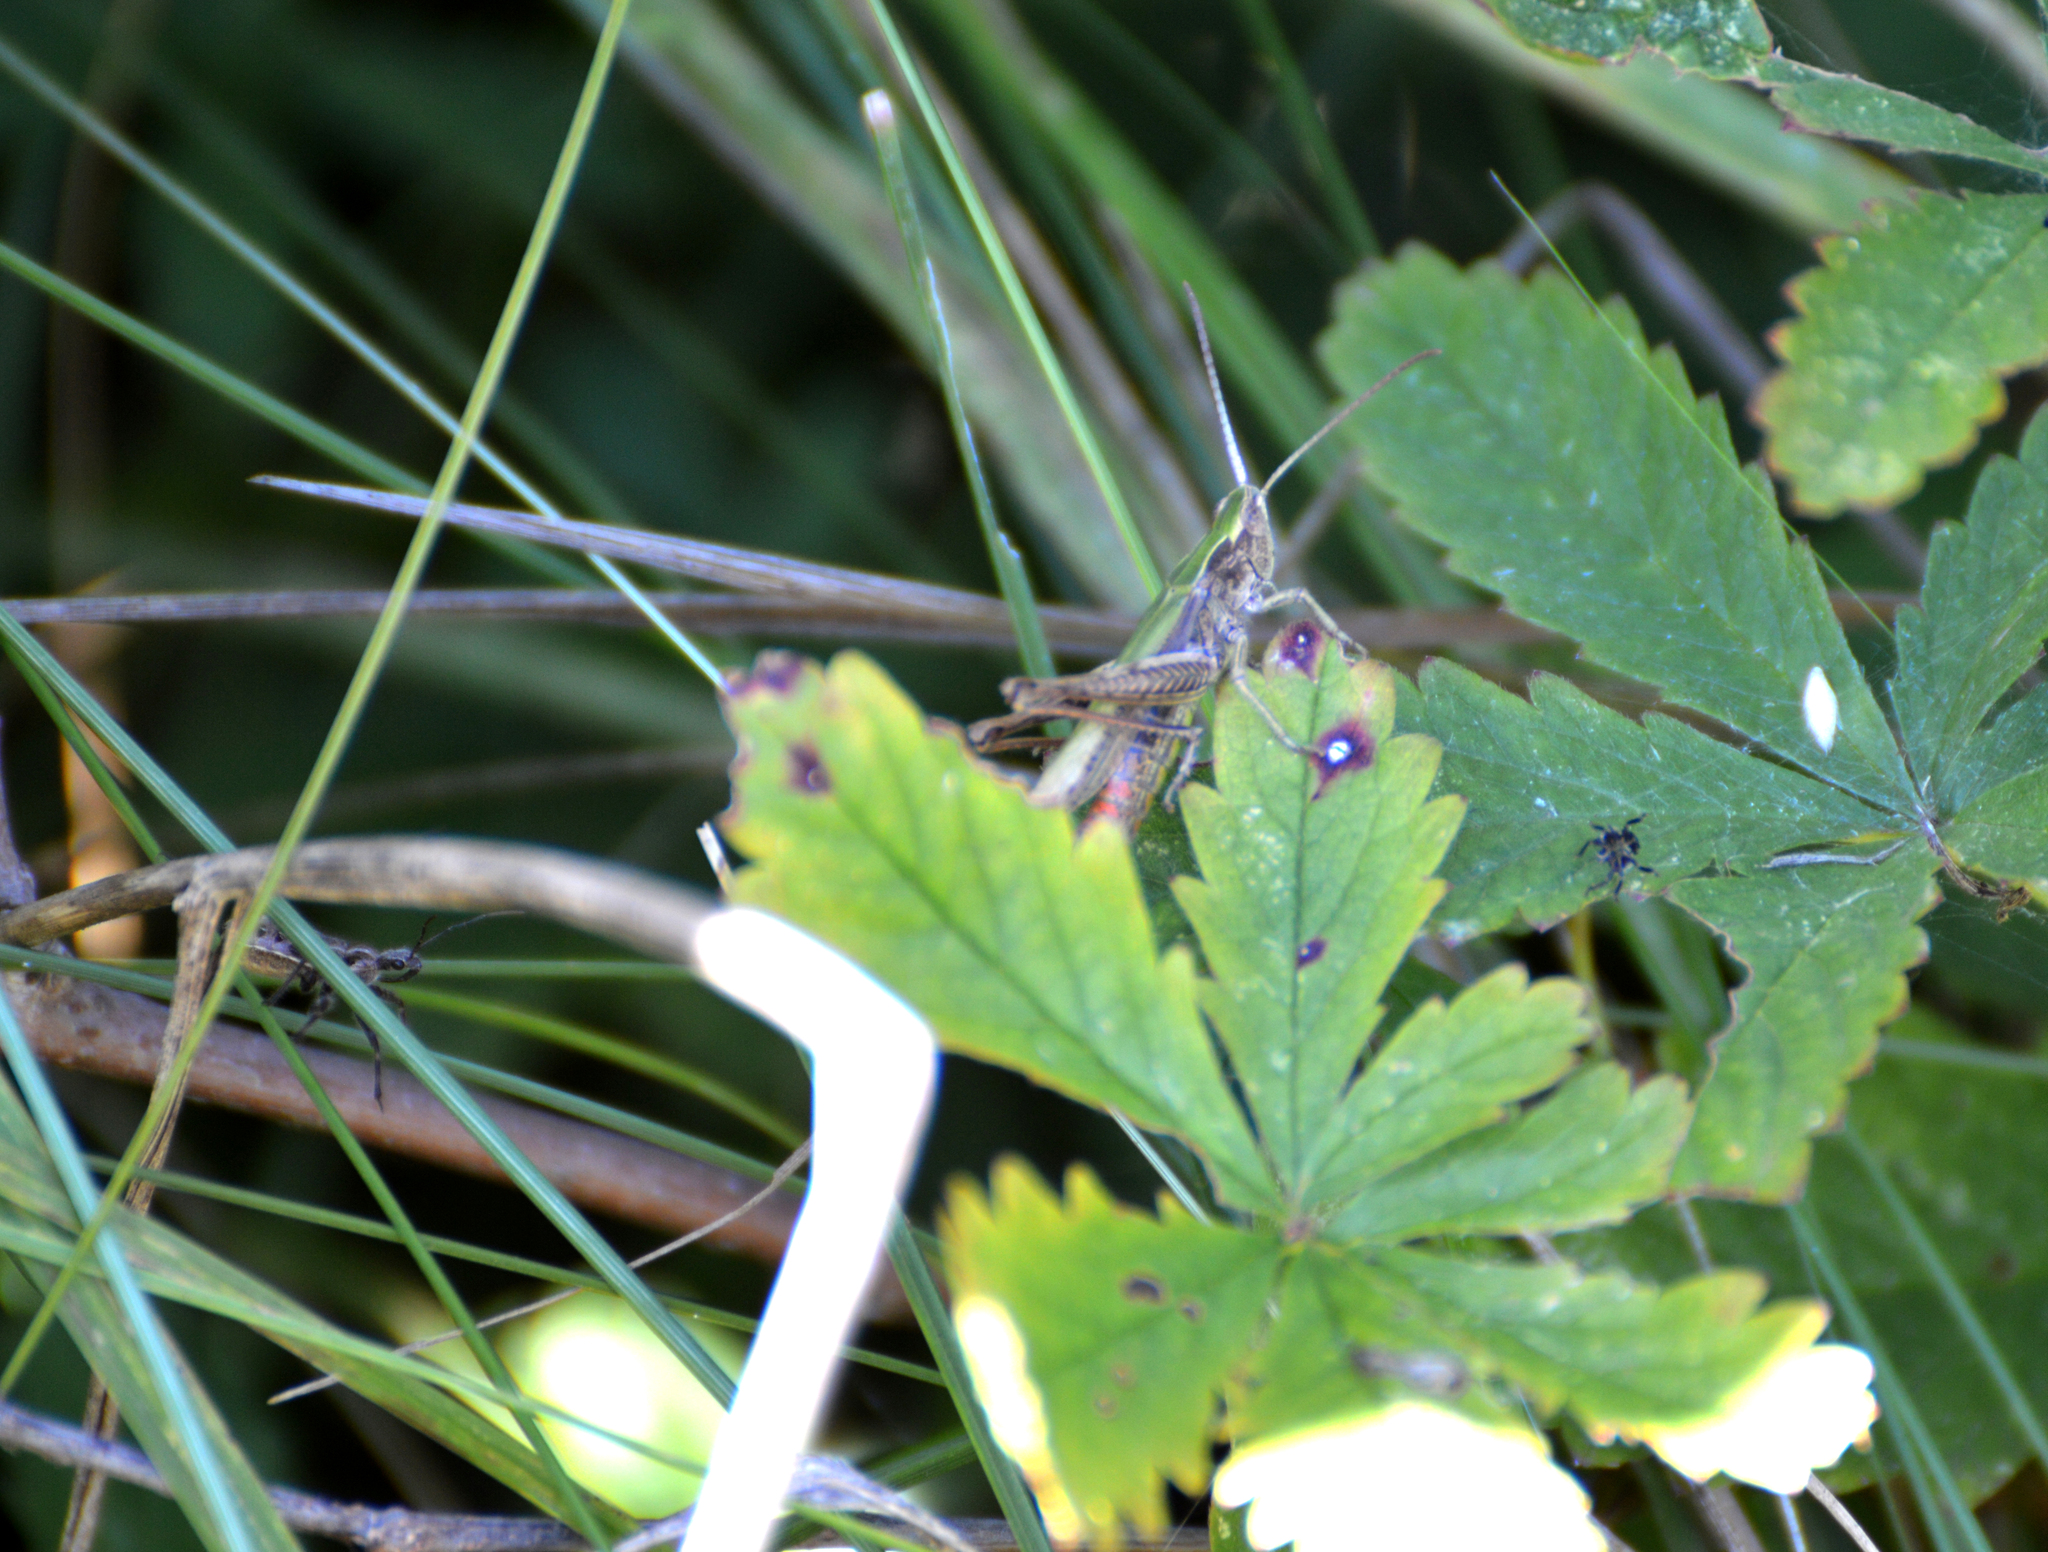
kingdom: Animalia
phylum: Arthropoda
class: Insecta
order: Orthoptera
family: Acrididae
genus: Chorthippus
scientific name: Chorthippus dorsatus
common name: Steppe grasshopper
